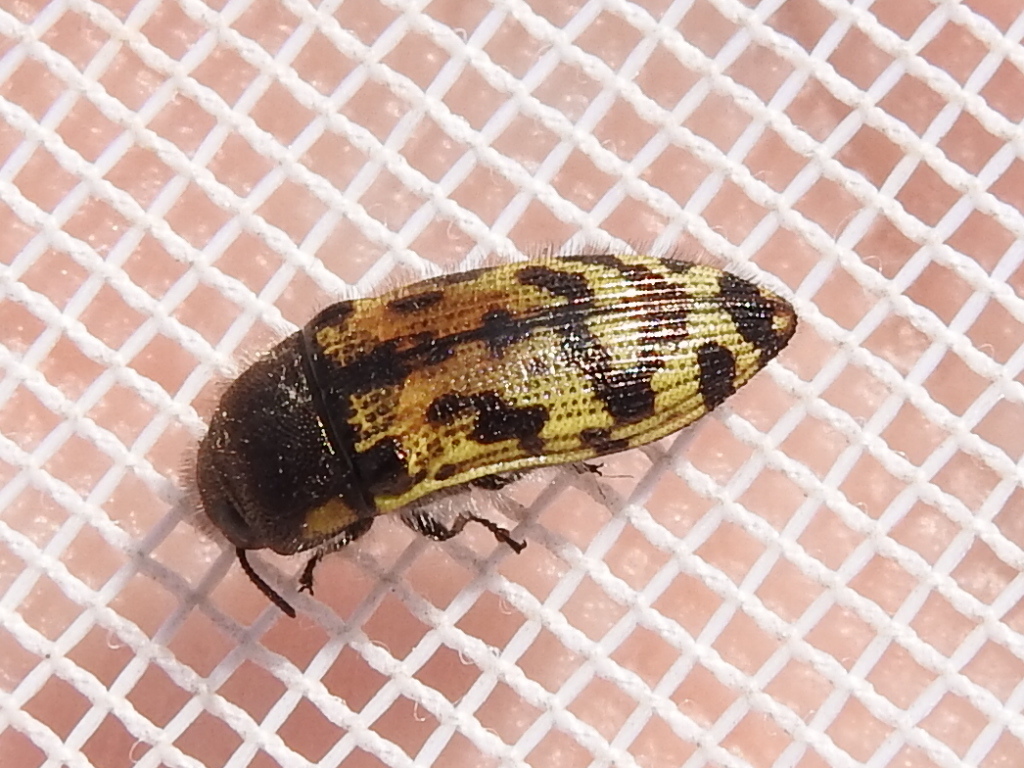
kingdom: Animalia
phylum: Arthropoda
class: Insecta
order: Coleoptera
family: Buprestidae
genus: Acmaeodera
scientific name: Acmaeodera mixta
